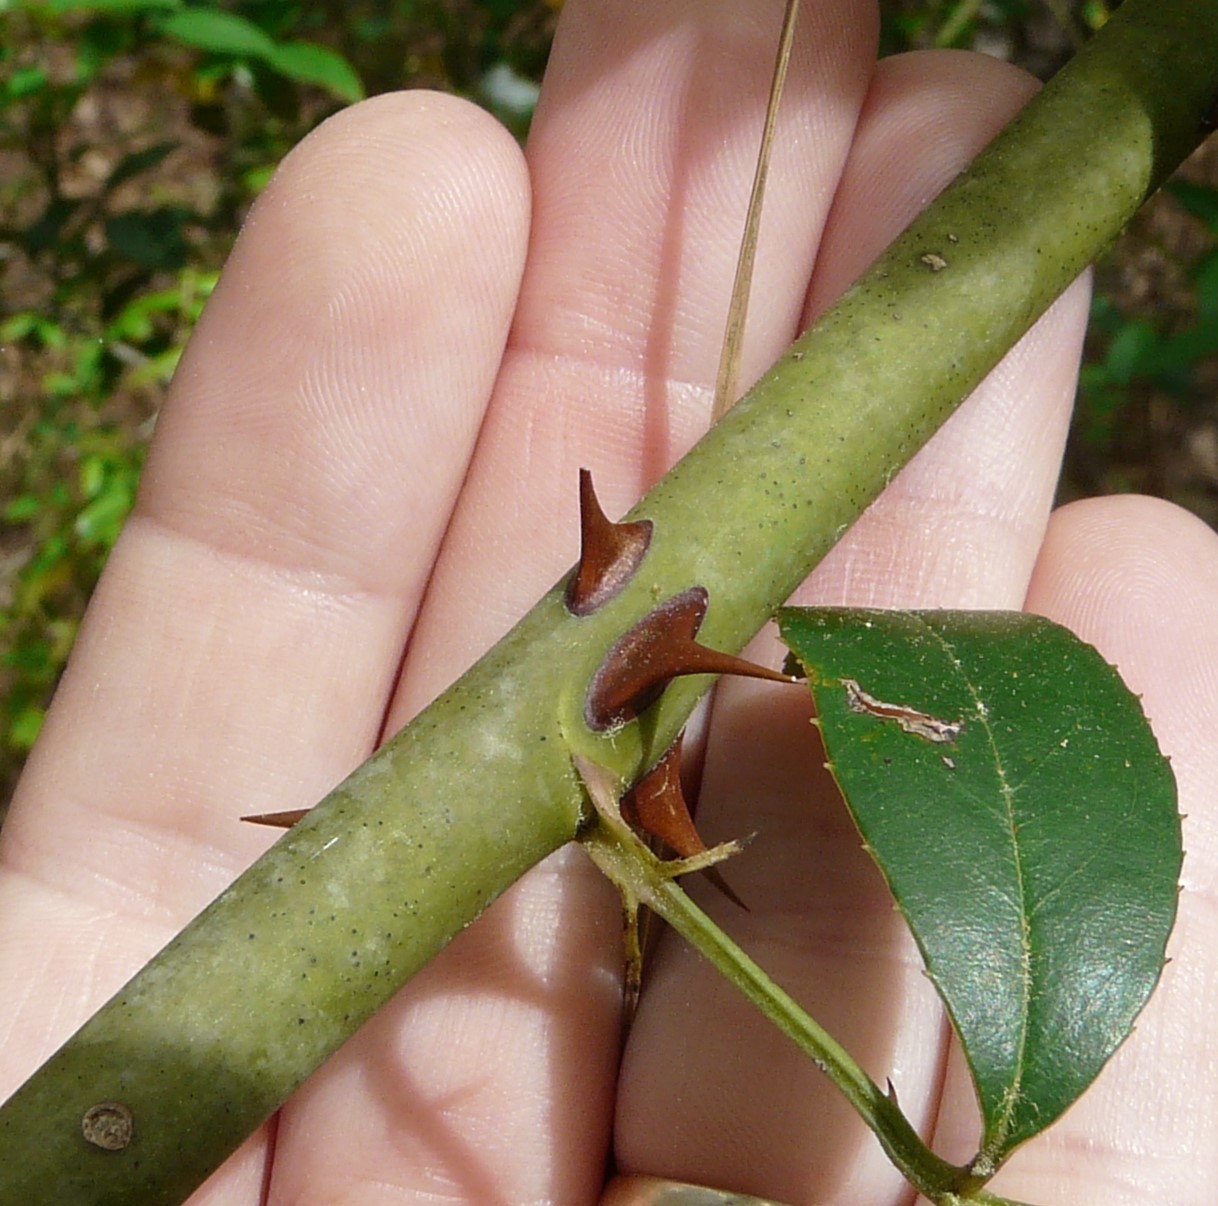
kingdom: Plantae
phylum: Tracheophyta
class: Magnoliopsida
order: Rosales
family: Rosaceae
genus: Rosa
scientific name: Rosa laevigata
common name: Cherokee rose
